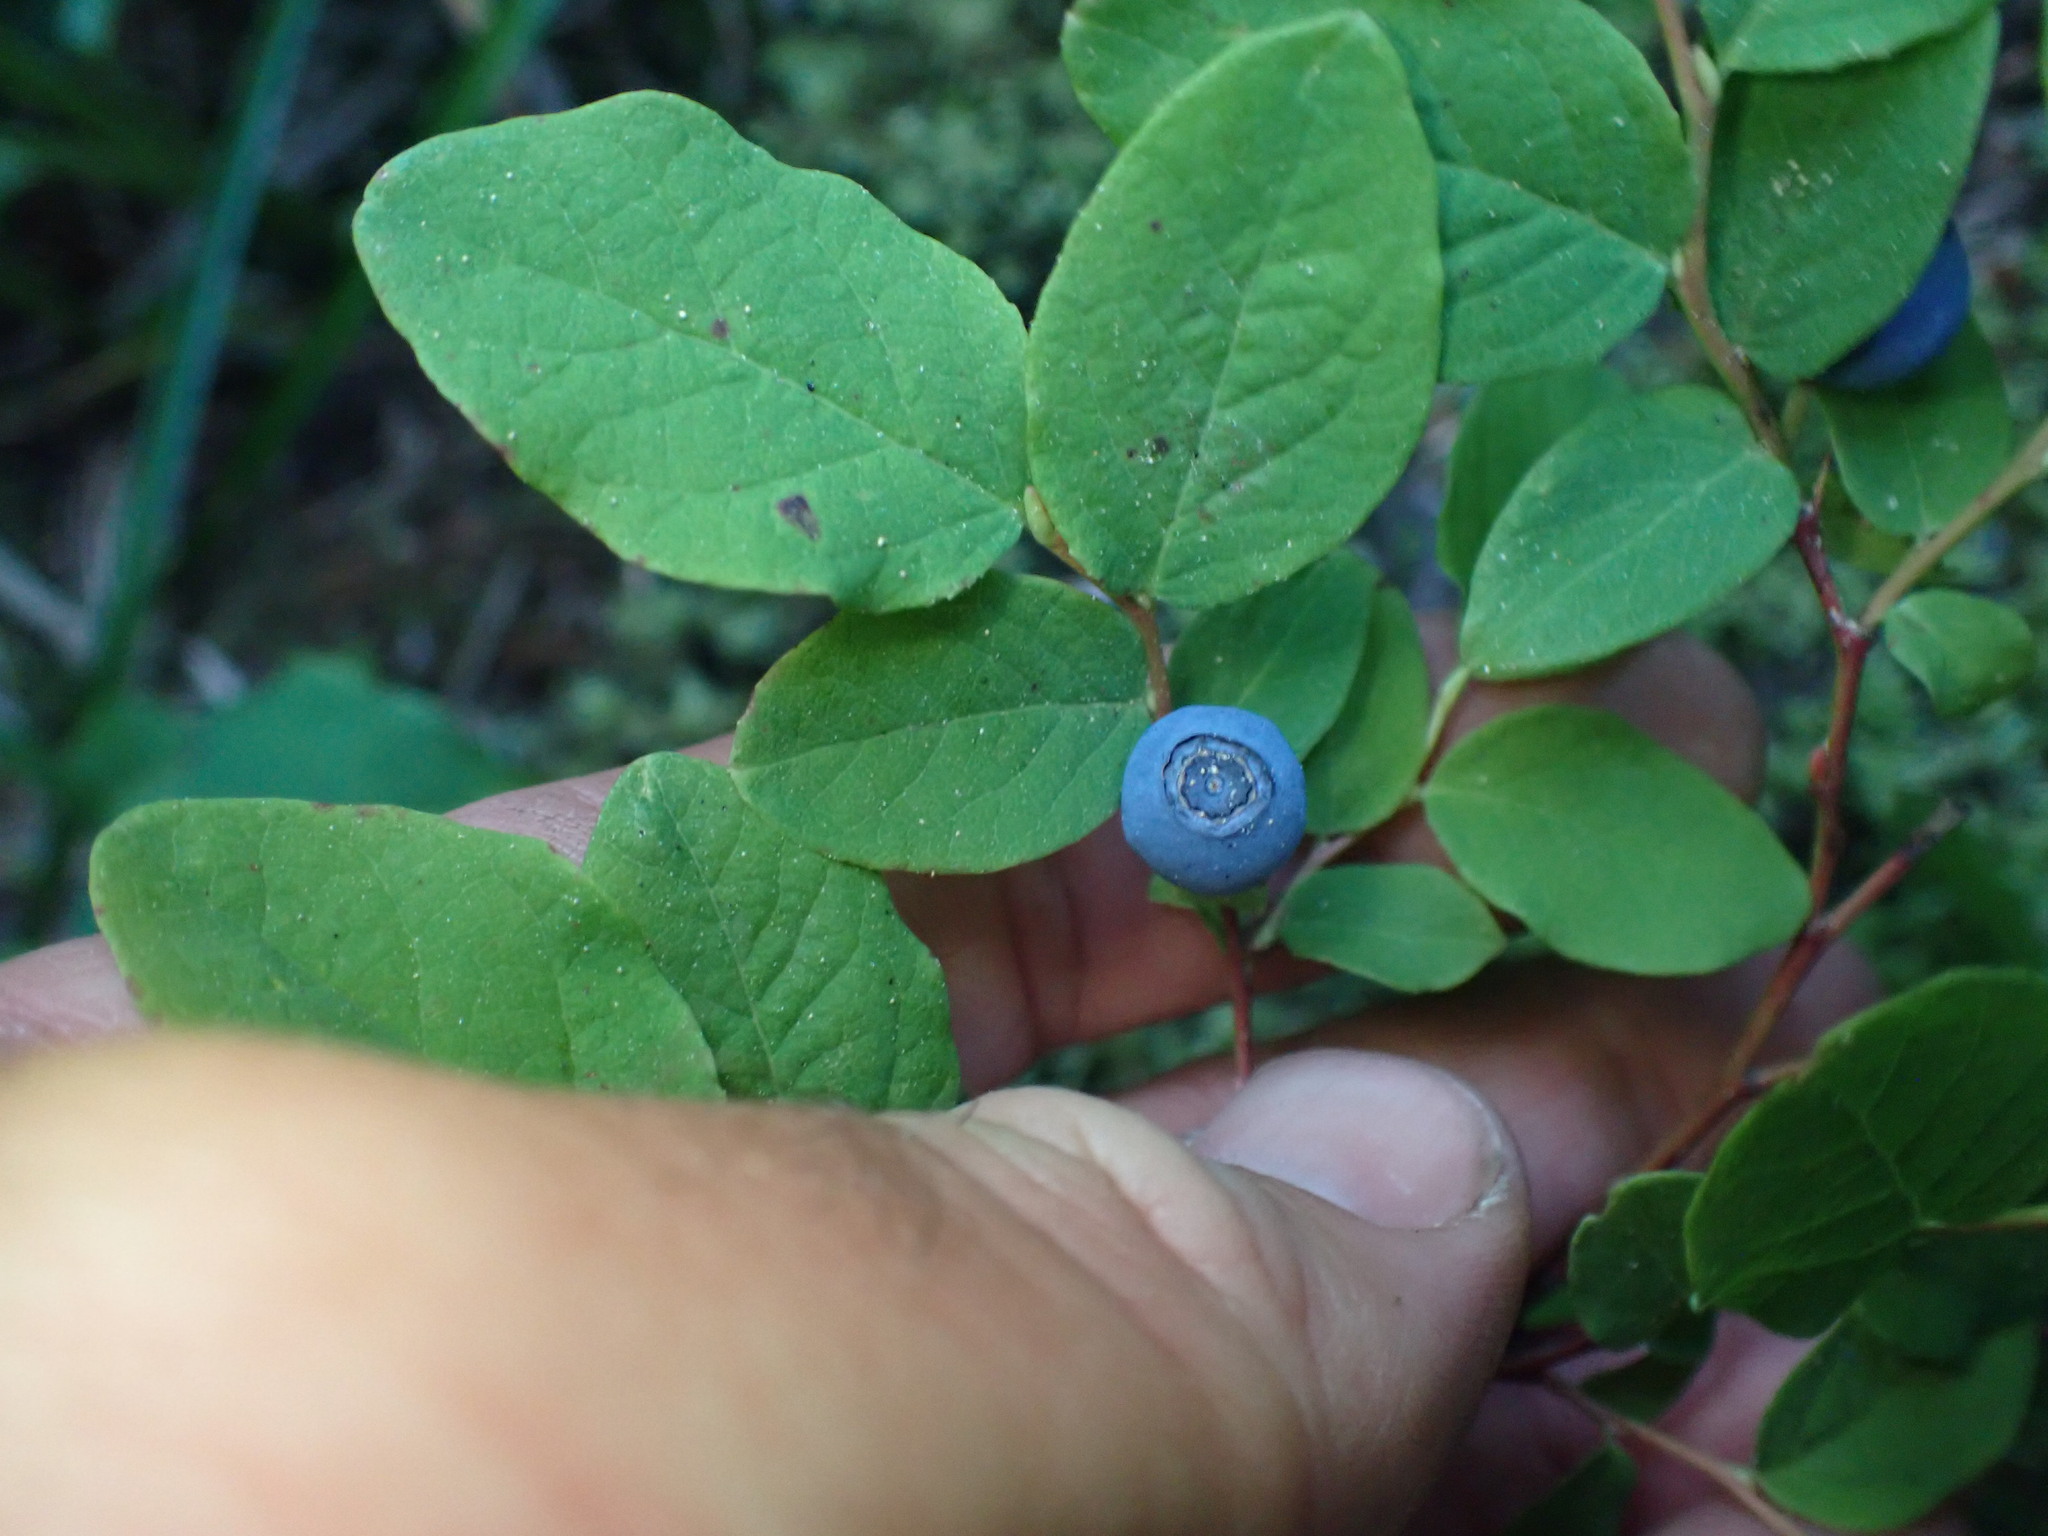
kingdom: Plantae
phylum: Tracheophyta
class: Magnoliopsida
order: Ericales
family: Ericaceae
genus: Vaccinium
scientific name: Vaccinium ovalifolium
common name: Early blueberry
